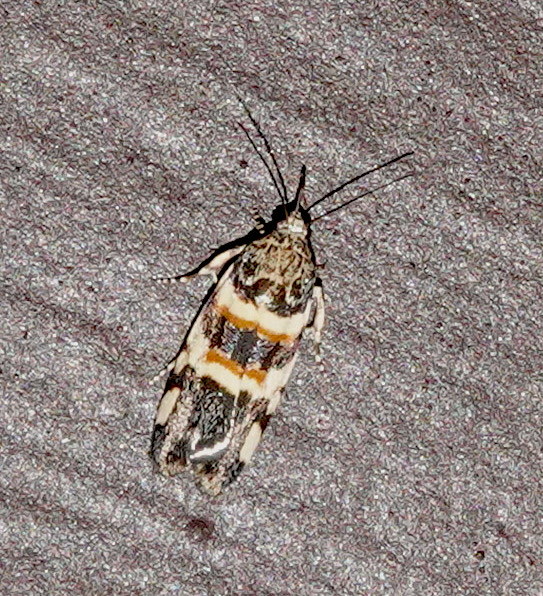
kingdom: Animalia
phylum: Arthropoda
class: Insecta
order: Lepidoptera
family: Noctuidae
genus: Spragueia
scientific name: Spragueia funeralis
